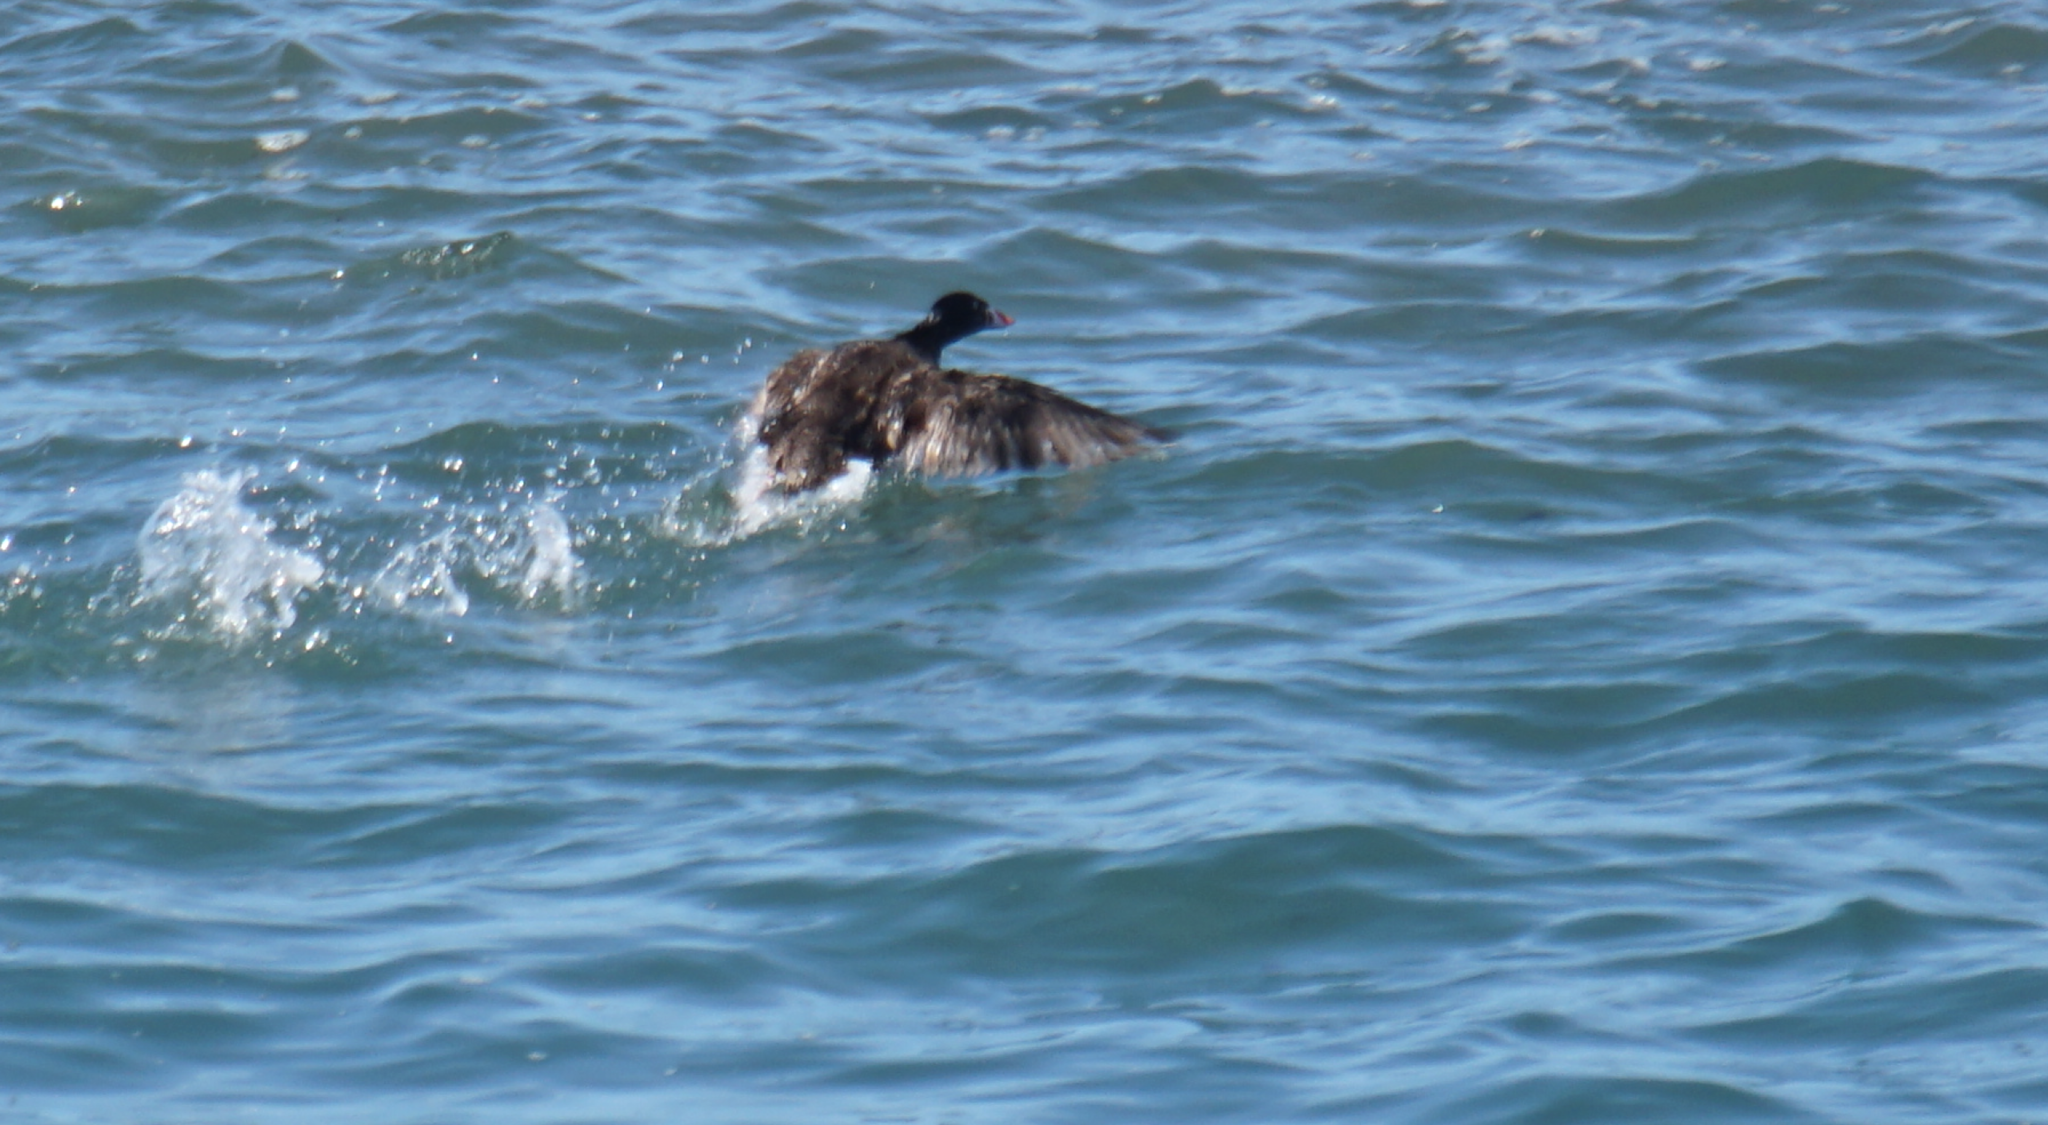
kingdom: Animalia
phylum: Chordata
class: Aves
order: Anseriformes
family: Anatidae
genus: Melanitta
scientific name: Melanitta perspicillata
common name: Surf scoter
